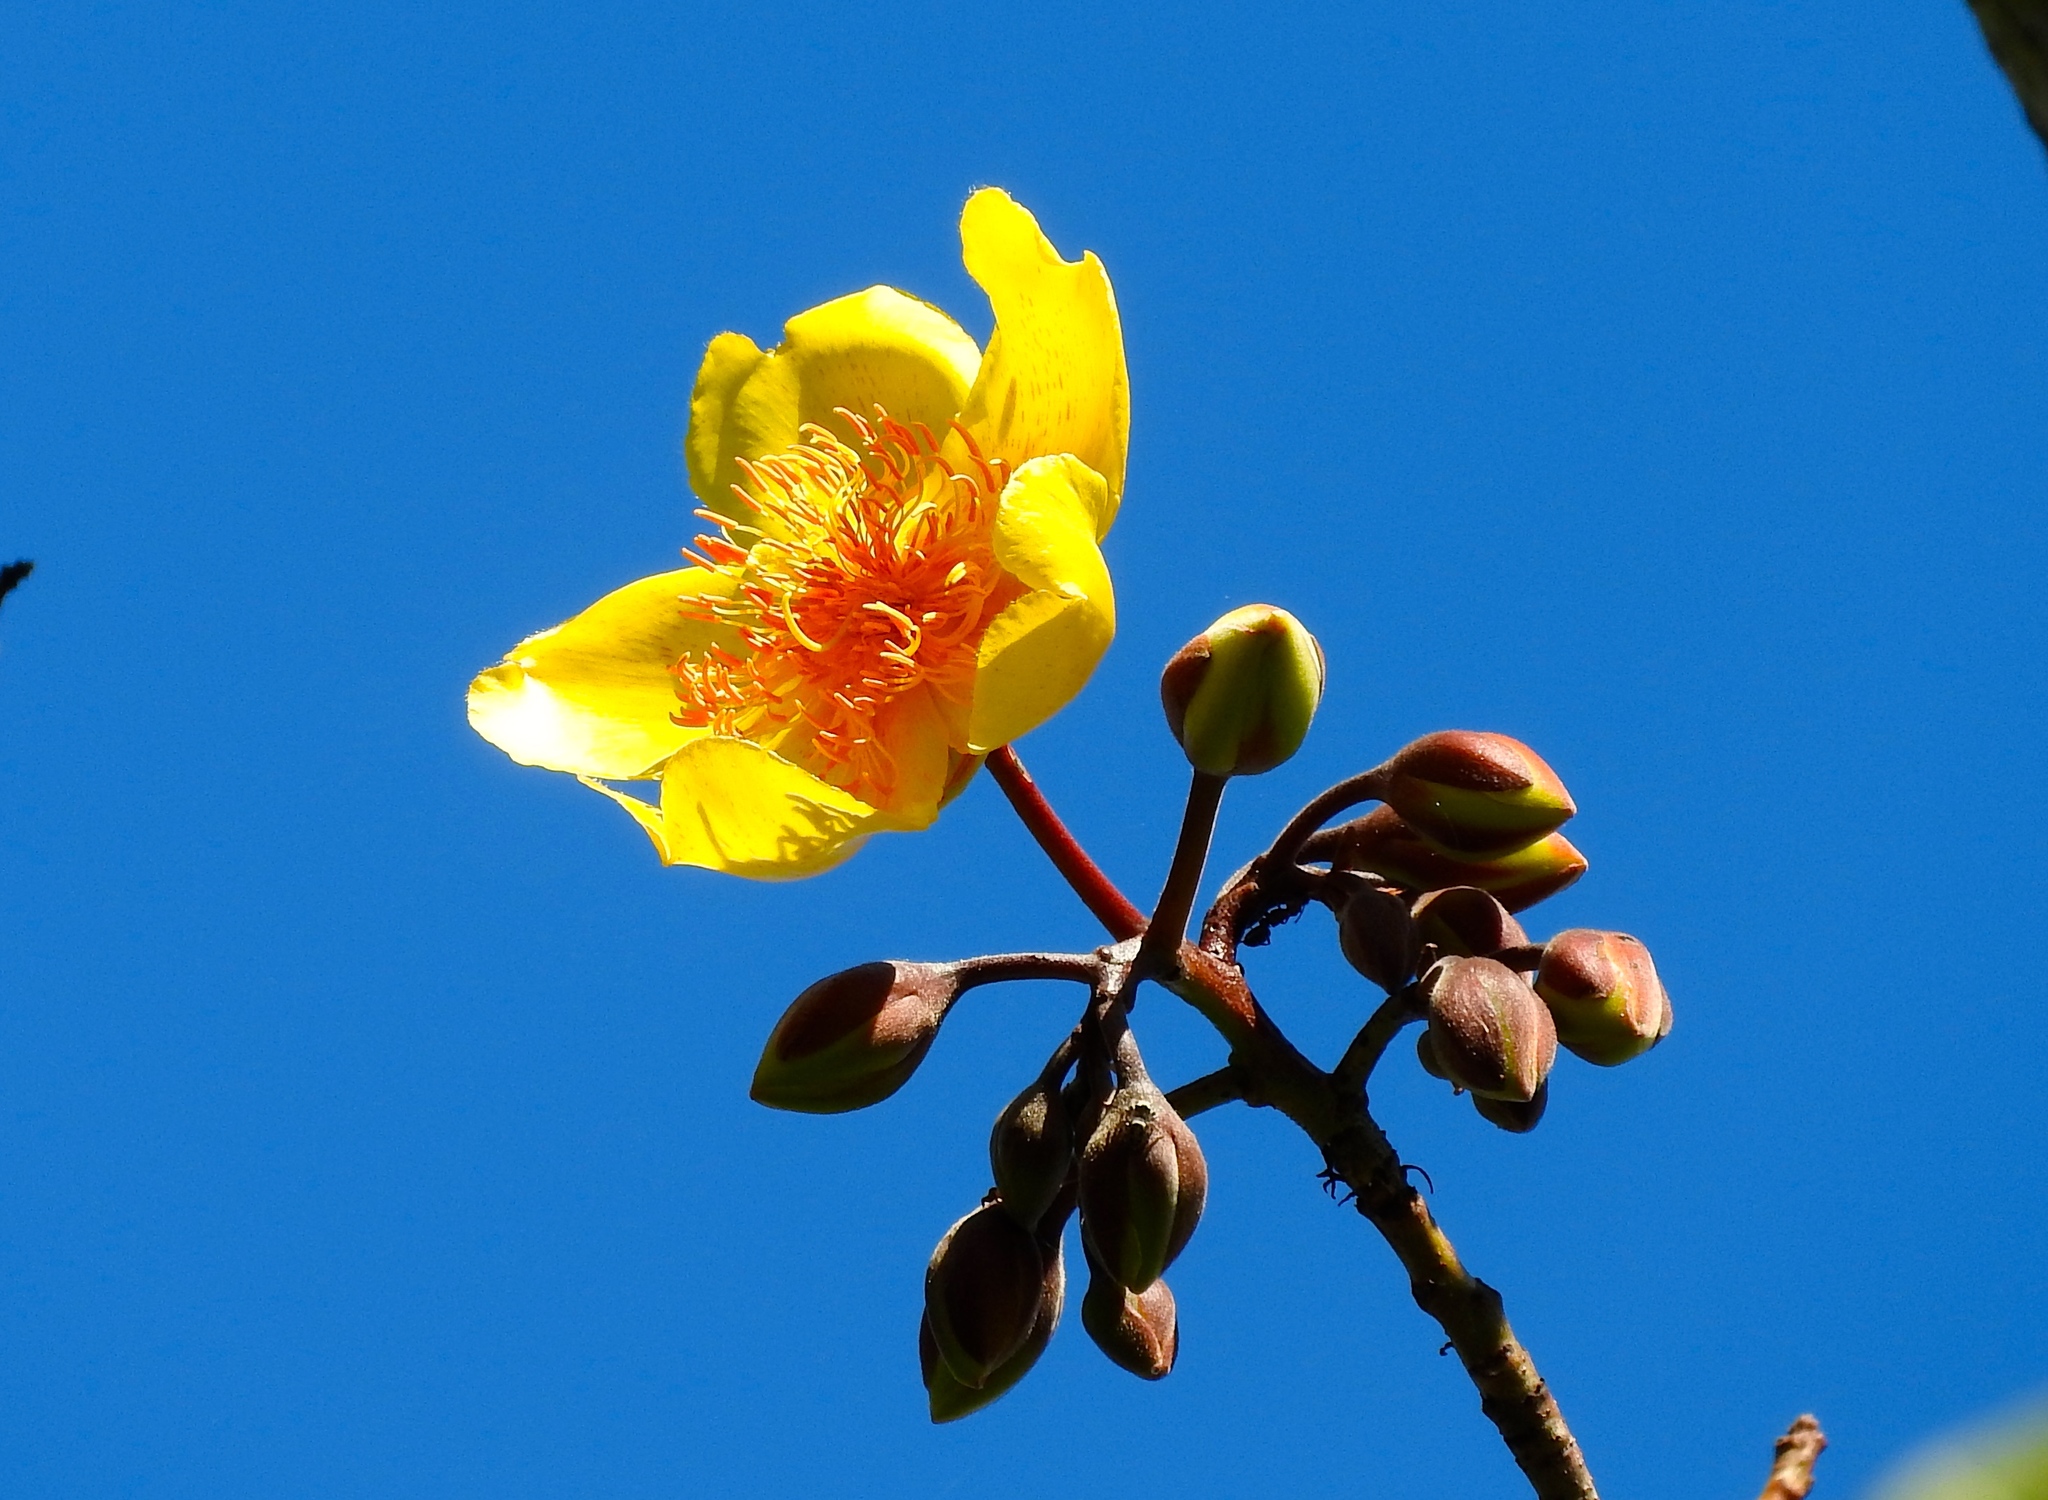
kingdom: Plantae
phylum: Tracheophyta
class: Magnoliopsida
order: Malvales
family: Cochlospermaceae
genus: Cochlospermum
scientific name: Cochlospermum vitifolium
